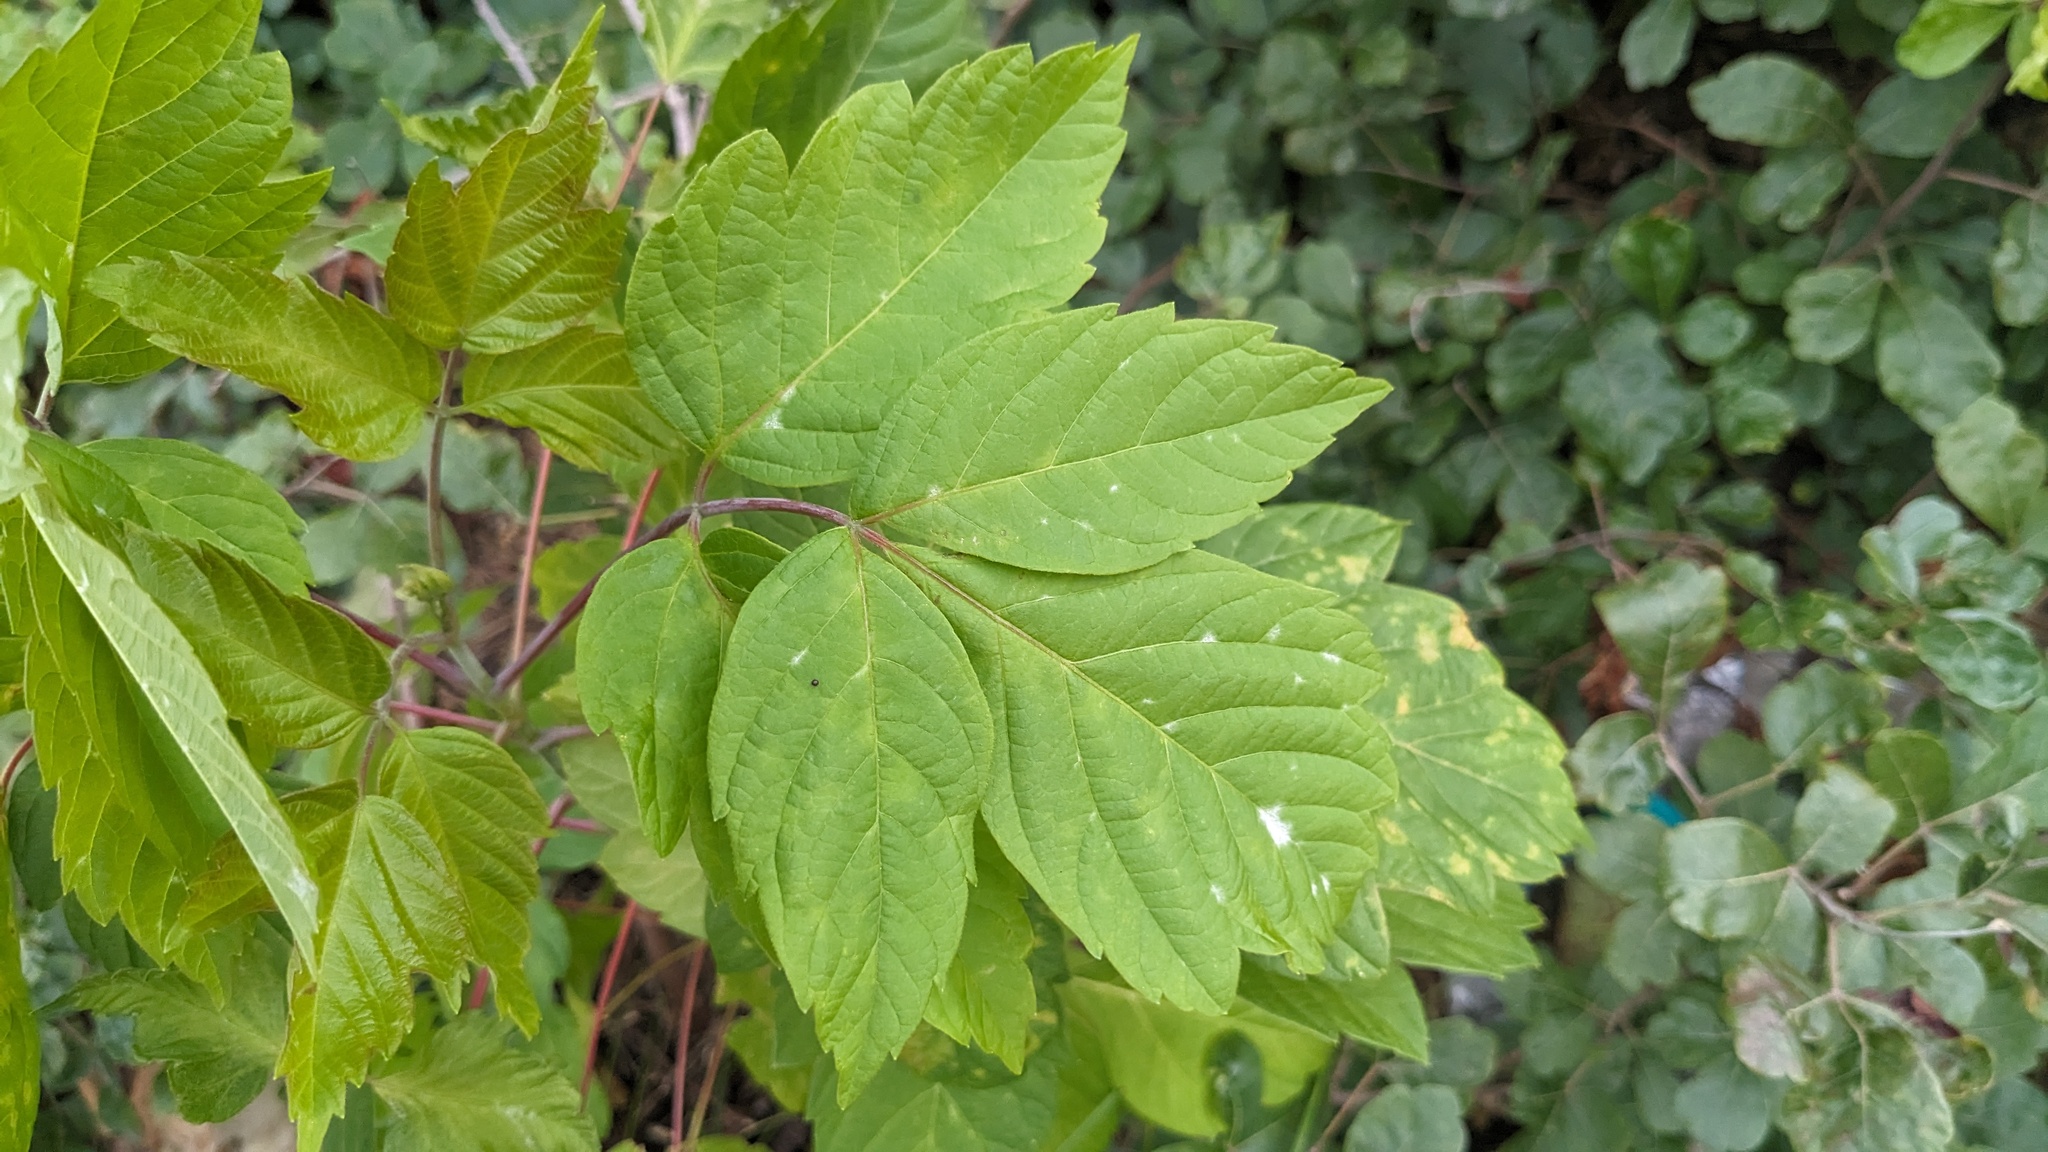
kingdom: Plantae
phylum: Tracheophyta
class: Magnoliopsida
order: Sapindales
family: Sapindaceae
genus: Acer
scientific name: Acer negundo
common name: Ashleaf maple
